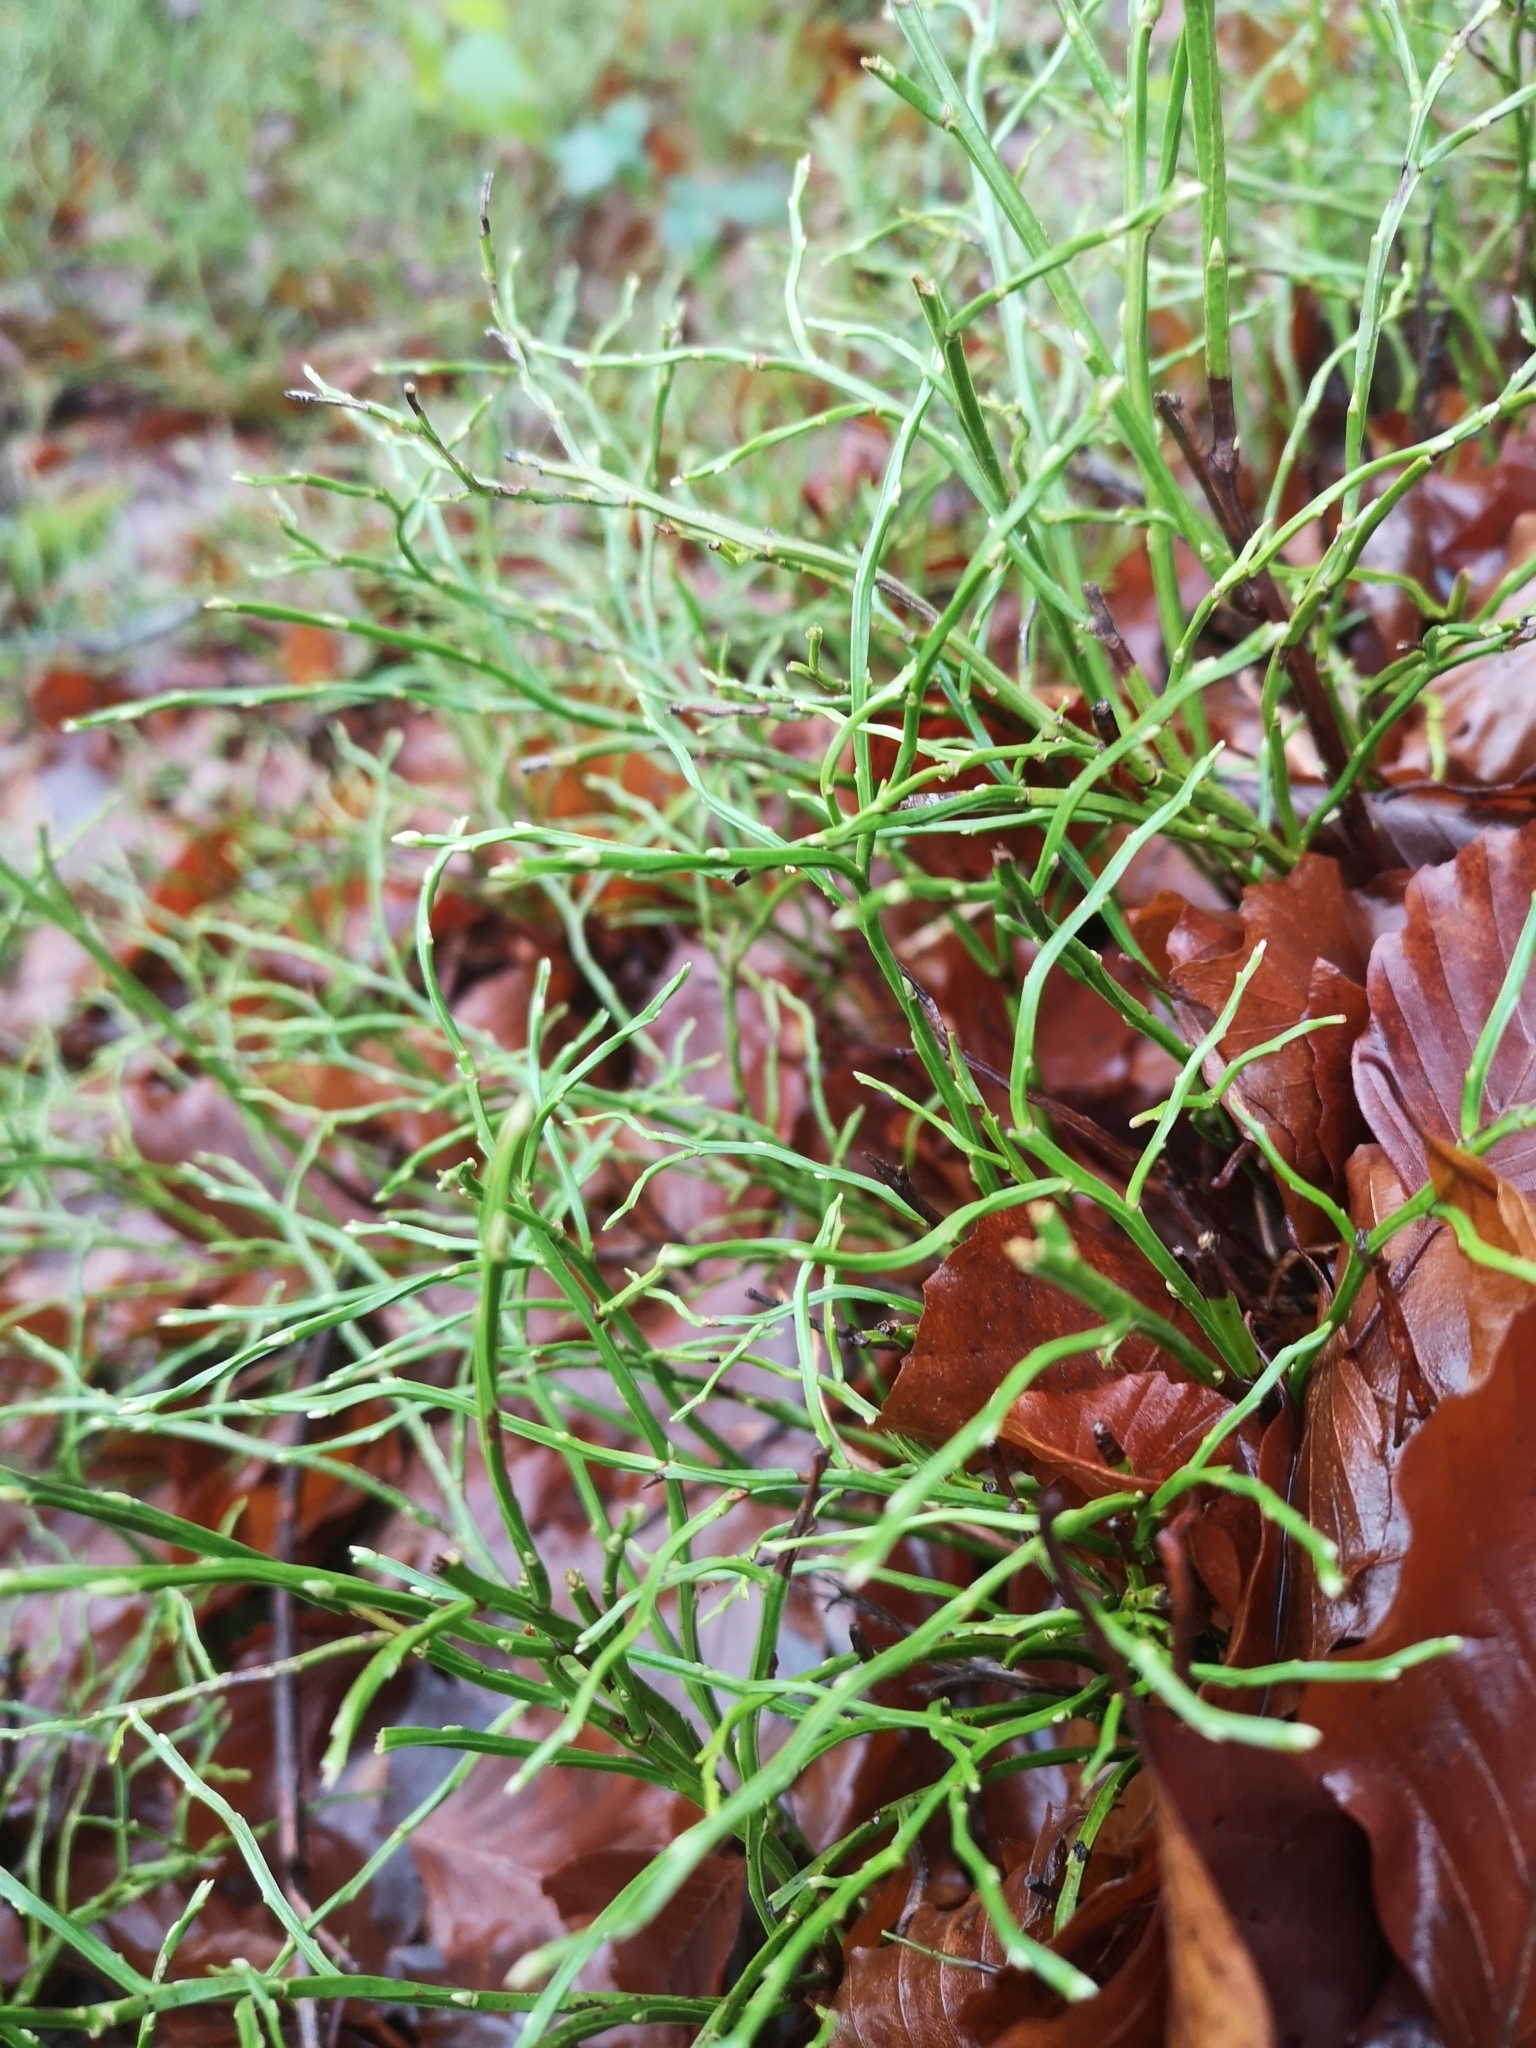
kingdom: Plantae
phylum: Tracheophyta
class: Magnoliopsida
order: Ericales
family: Ericaceae
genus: Vaccinium
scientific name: Vaccinium myrtillus
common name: Bilberry
